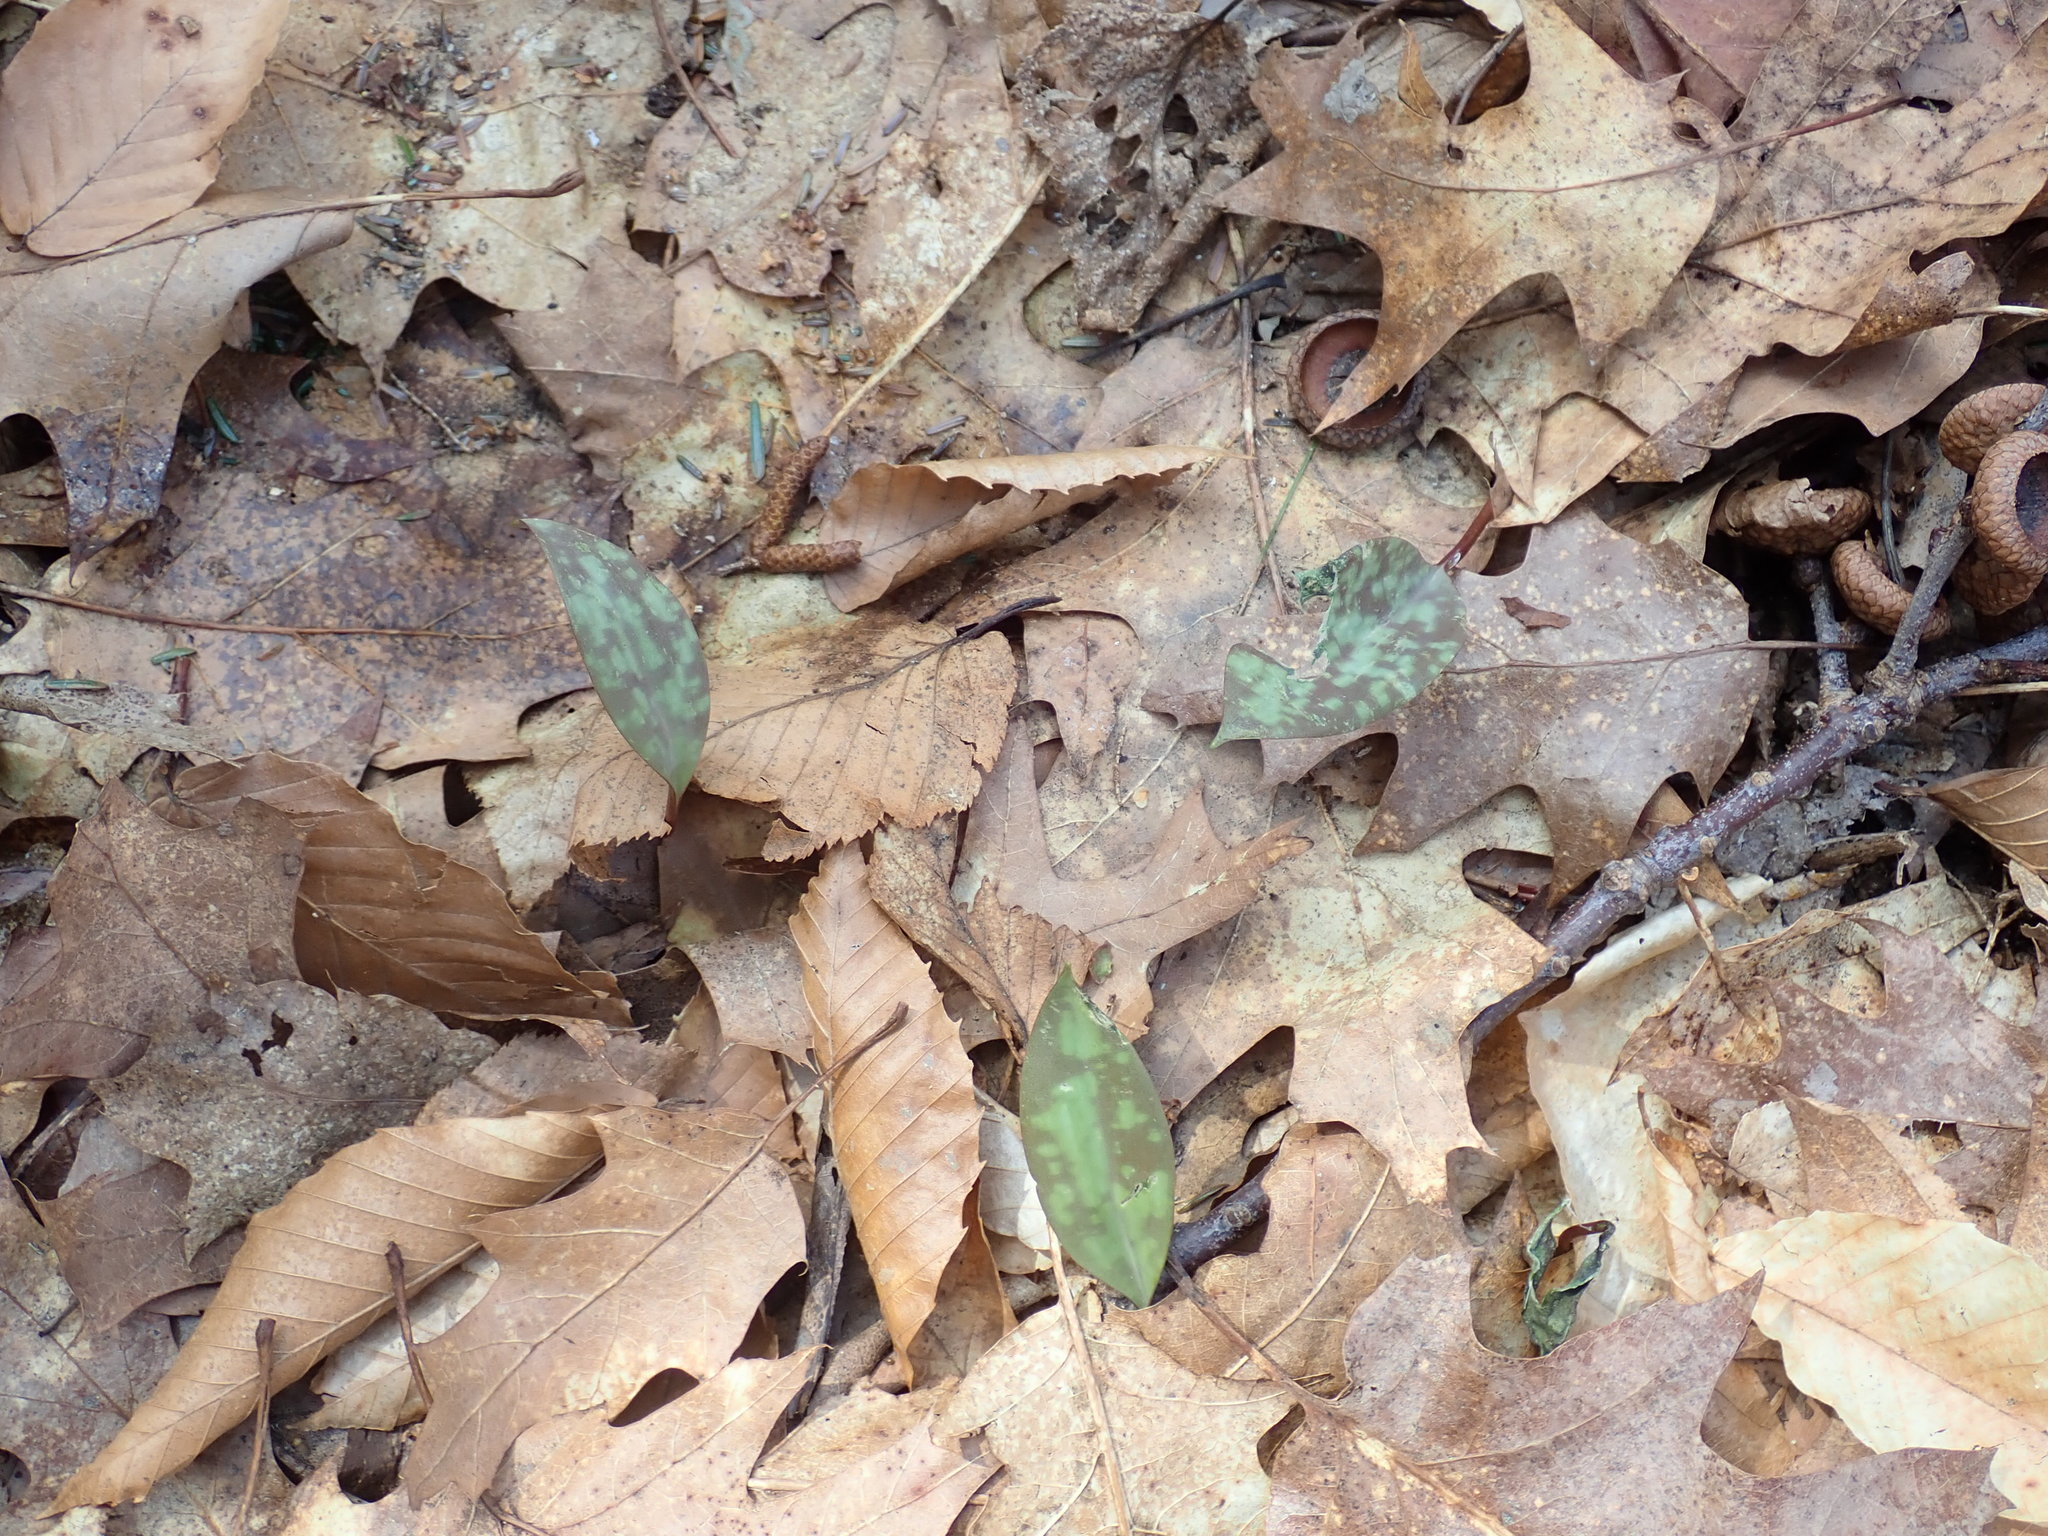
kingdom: Plantae
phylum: Tracheophyta
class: Liliopsida
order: Liliales
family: Liliaceae
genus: Erythronium
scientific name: Erythronium americanum
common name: Yellow adder's-tongue
